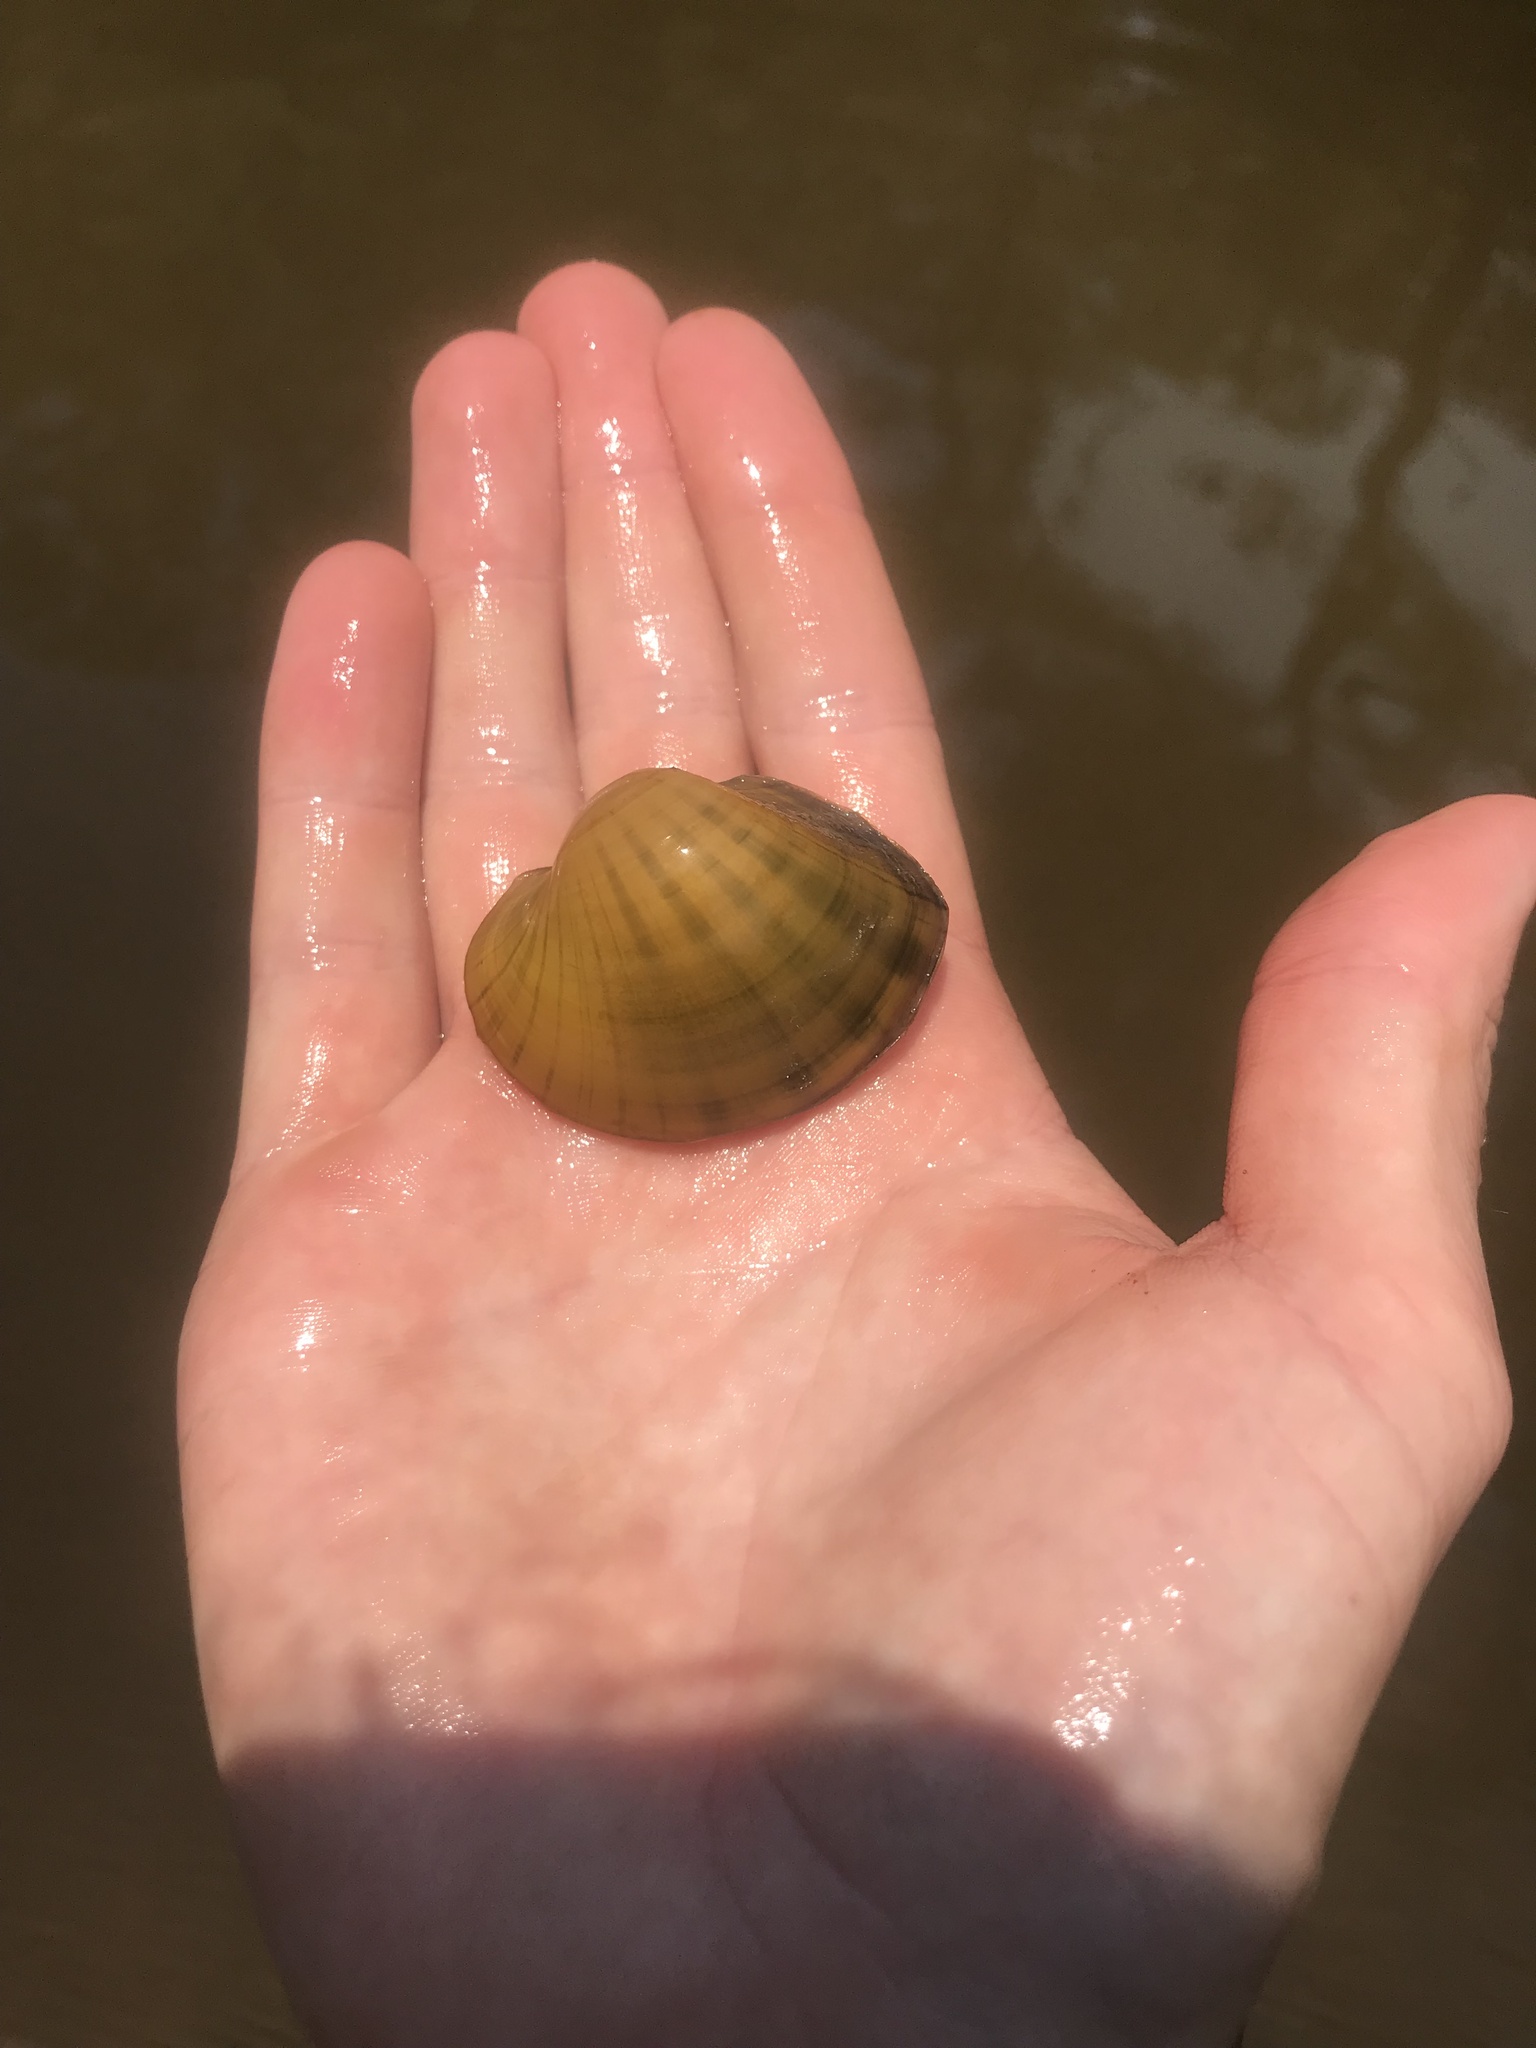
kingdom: Animalia
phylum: Mollusca
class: Bivalvia
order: Unionida
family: Unionidae
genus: Lampsilis
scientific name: Lampsilis ornata
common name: Southern pocketbook
